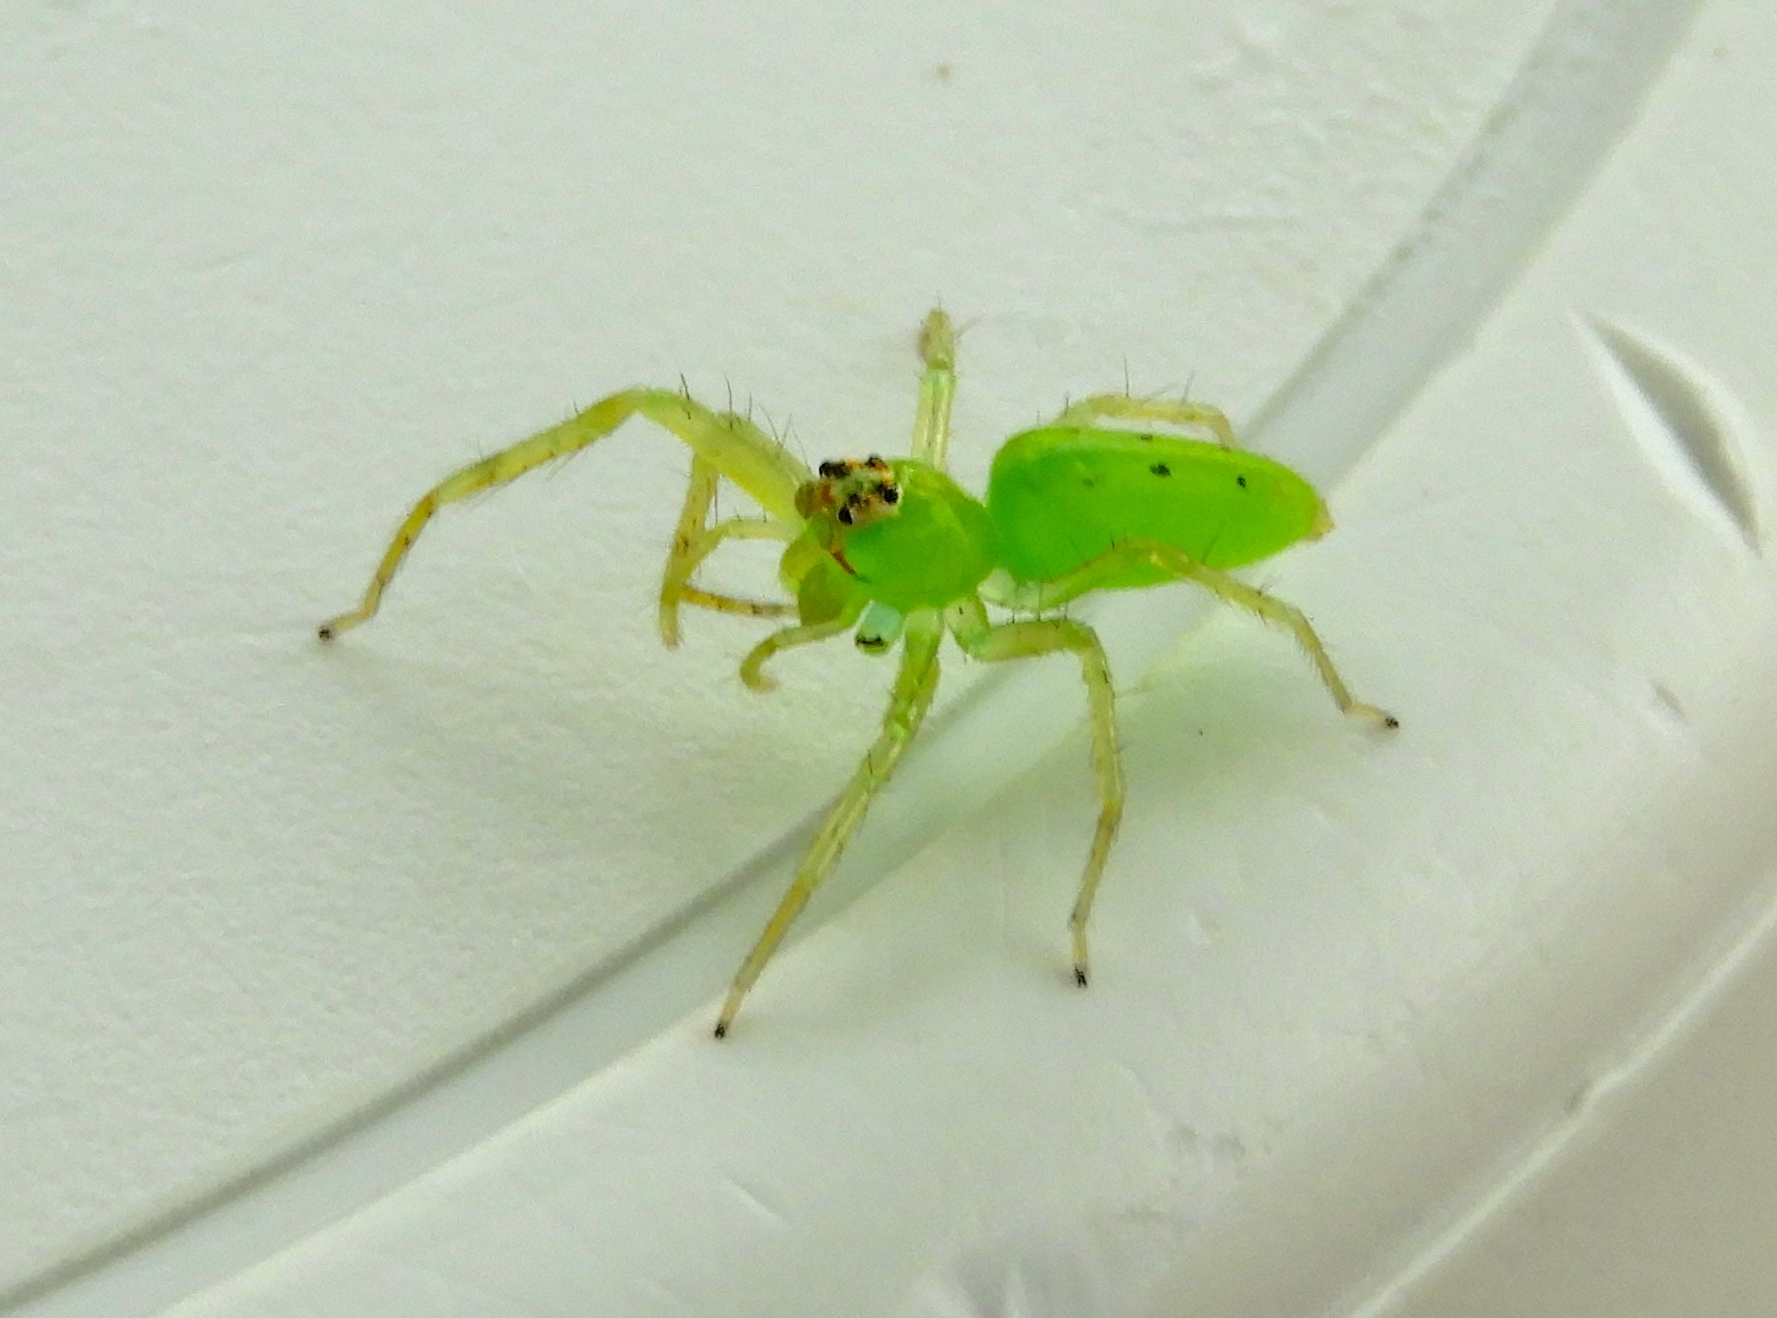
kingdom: Animalia
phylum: Arthropoda
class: Arachnida
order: Araneae
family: Salticidae
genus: Lyssomanes
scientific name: Lyssomanes
